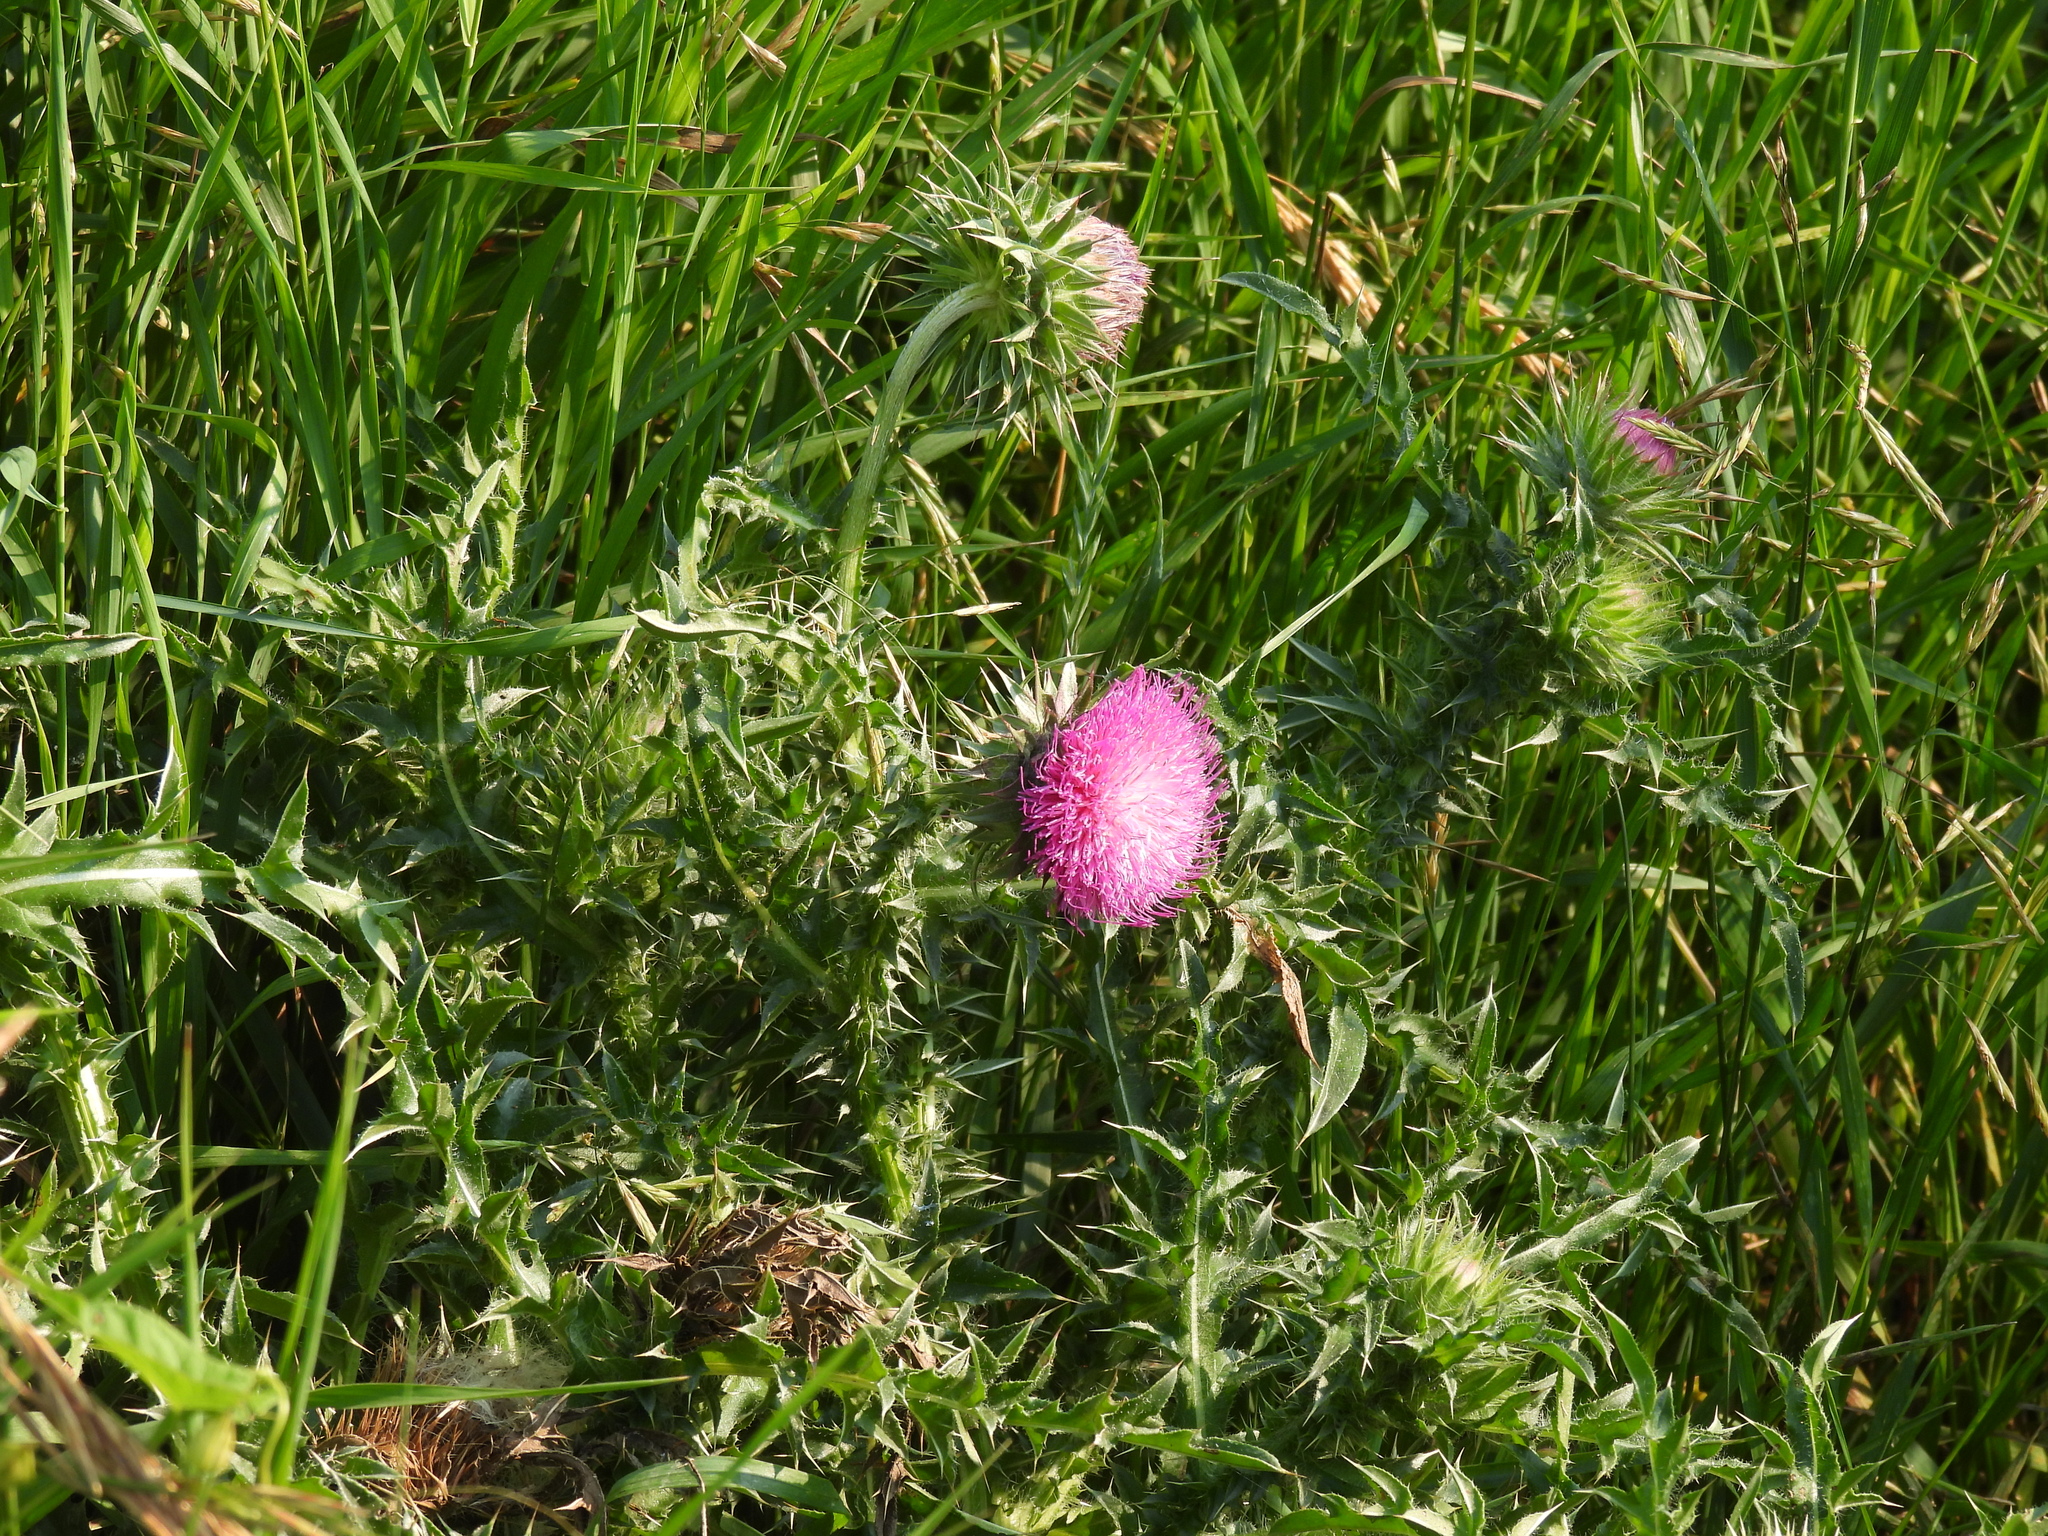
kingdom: Plantae
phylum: Tracheophyta
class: Magnoliopsida
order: Asterales
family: Asteraceae
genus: Carduus
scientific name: Carduus nutans
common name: Musk thistle
